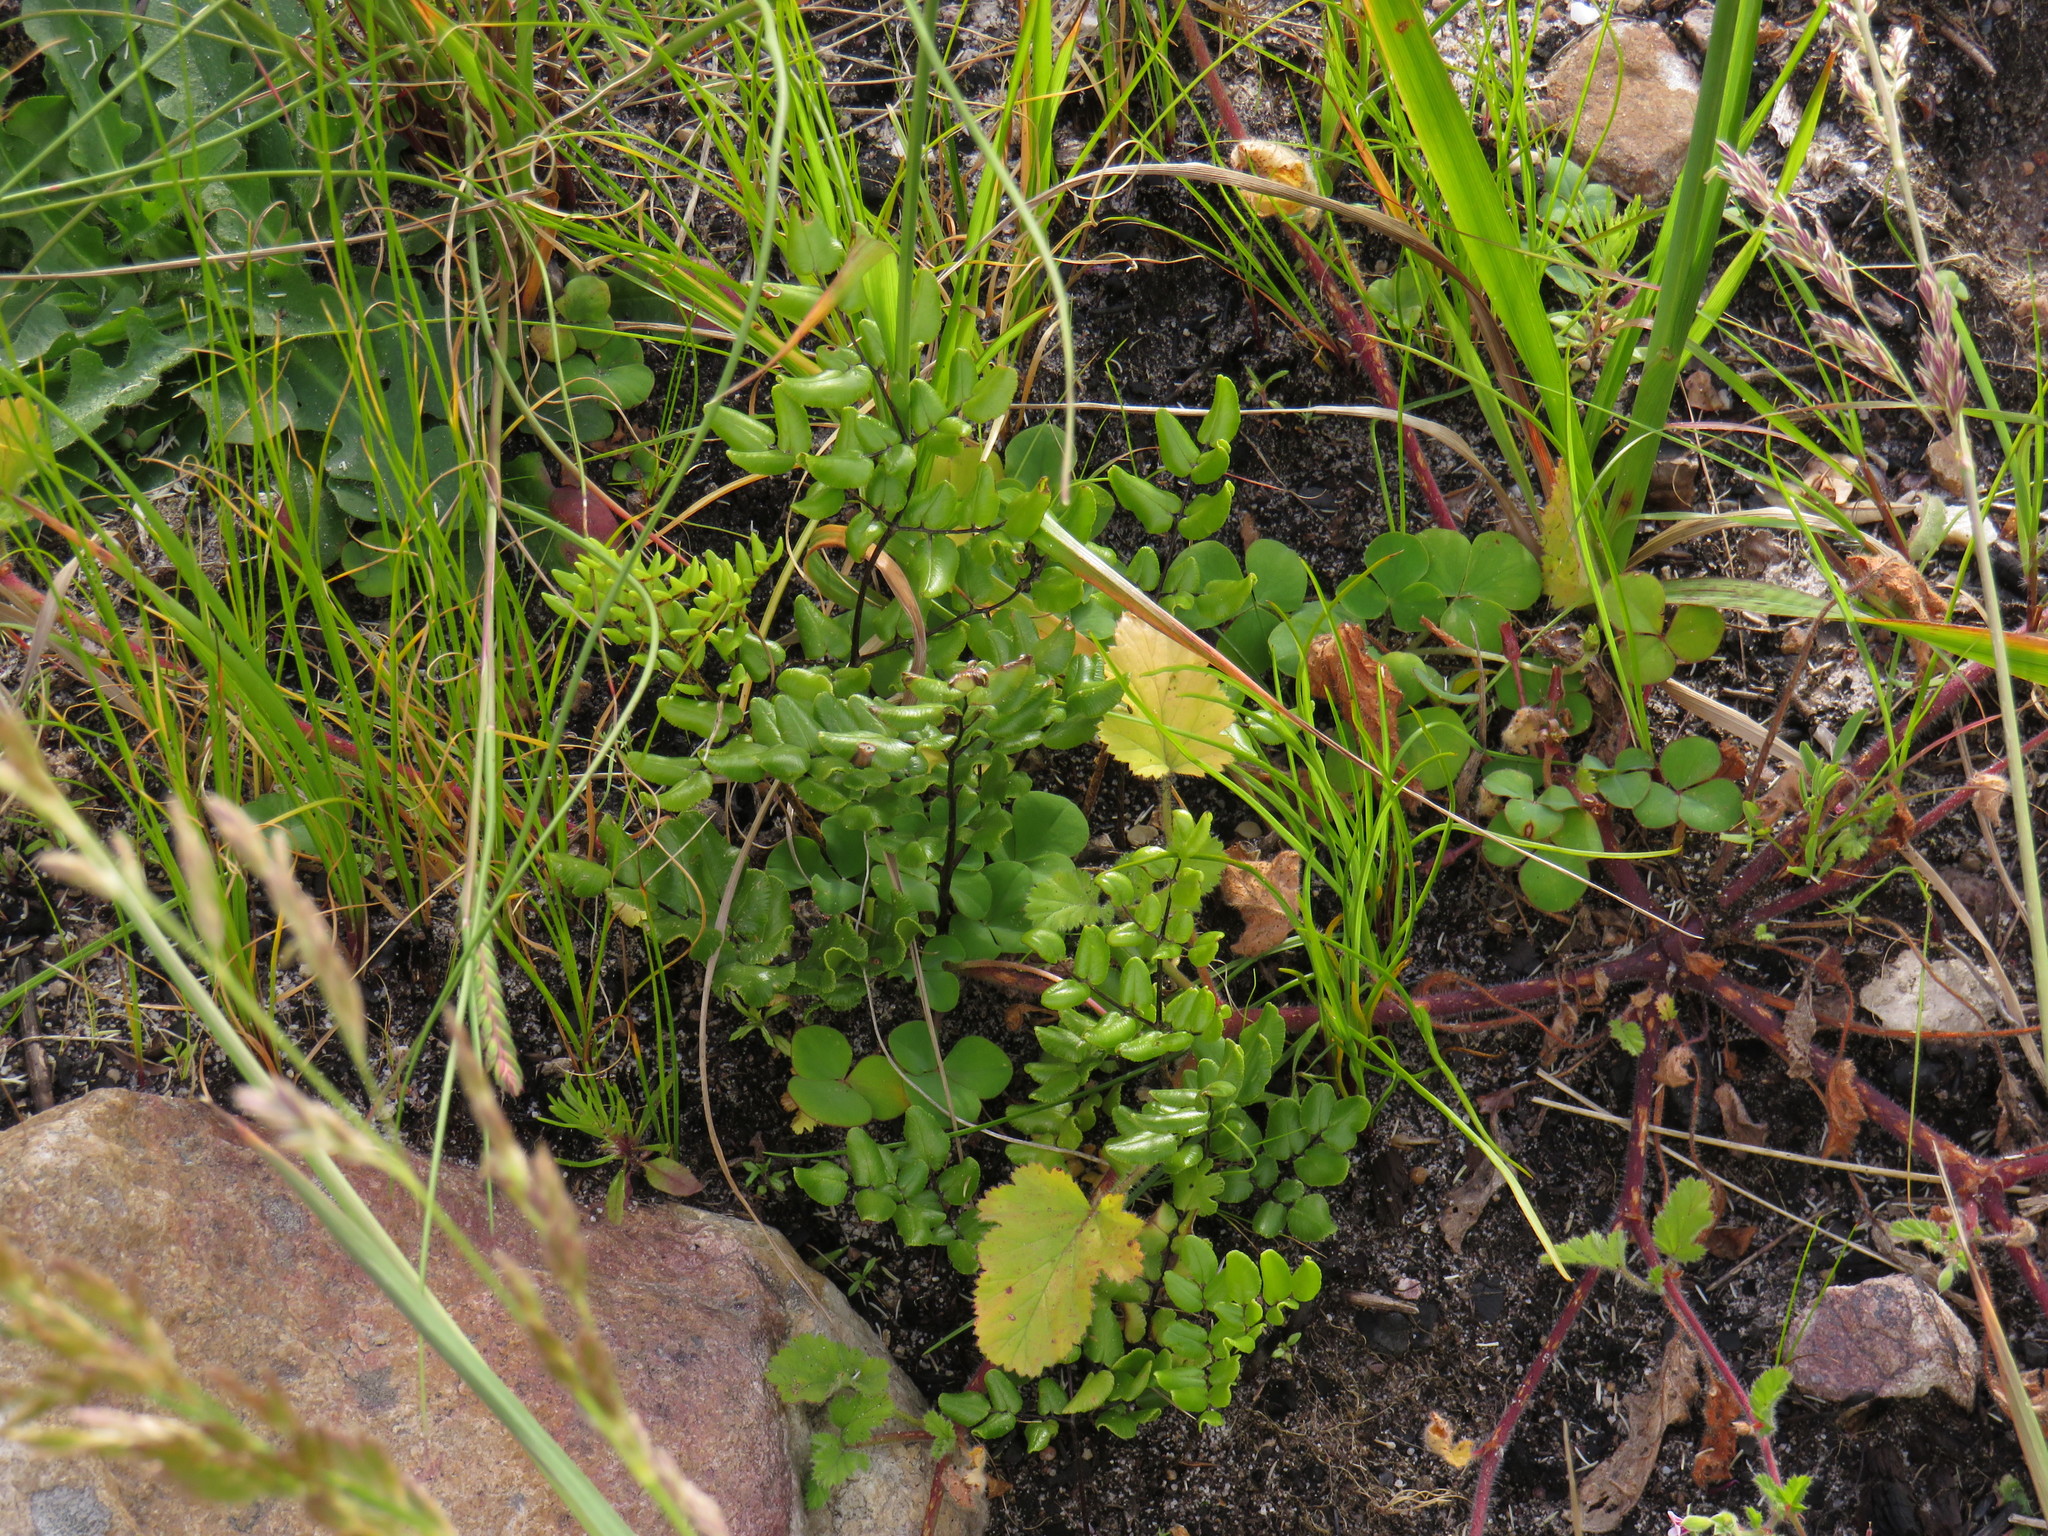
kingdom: Plantae
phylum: Tracheophyta
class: Polypodiopsida
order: Polypodiales
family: Pteridaceae
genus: Pellaea
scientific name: Pellaea pteroides
